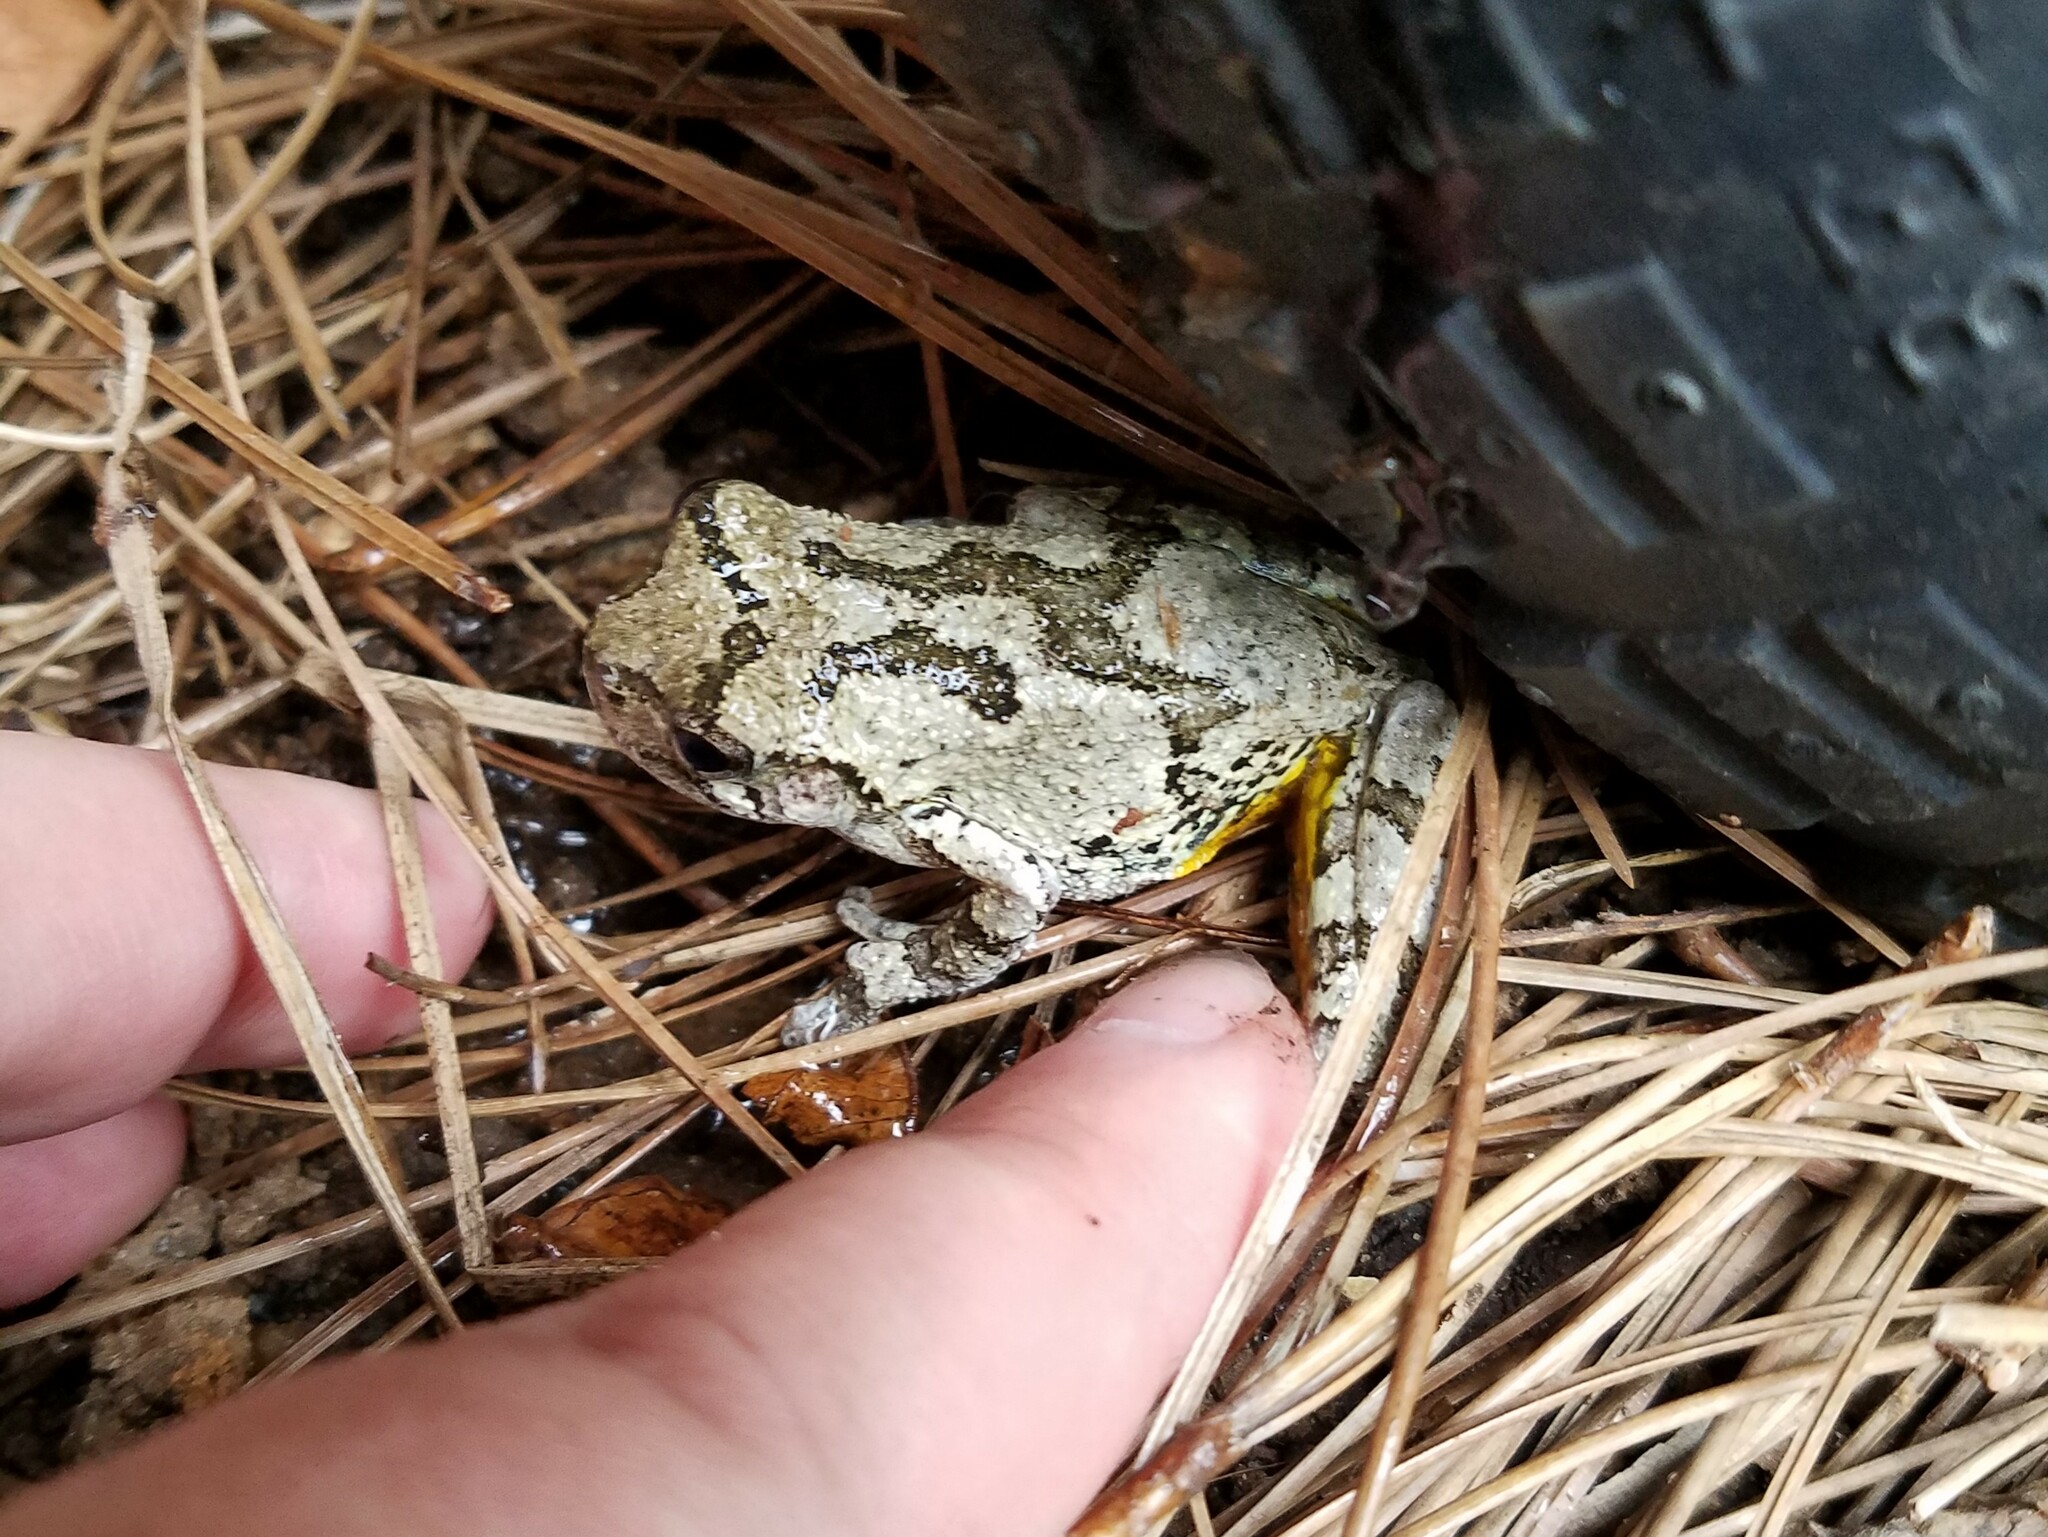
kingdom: Animalia
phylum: Chordata
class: Amphibia
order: Anura
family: Hylidae
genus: Dryophytes
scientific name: Dryophytes chrysoscelis
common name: Cope's gray treefrog
